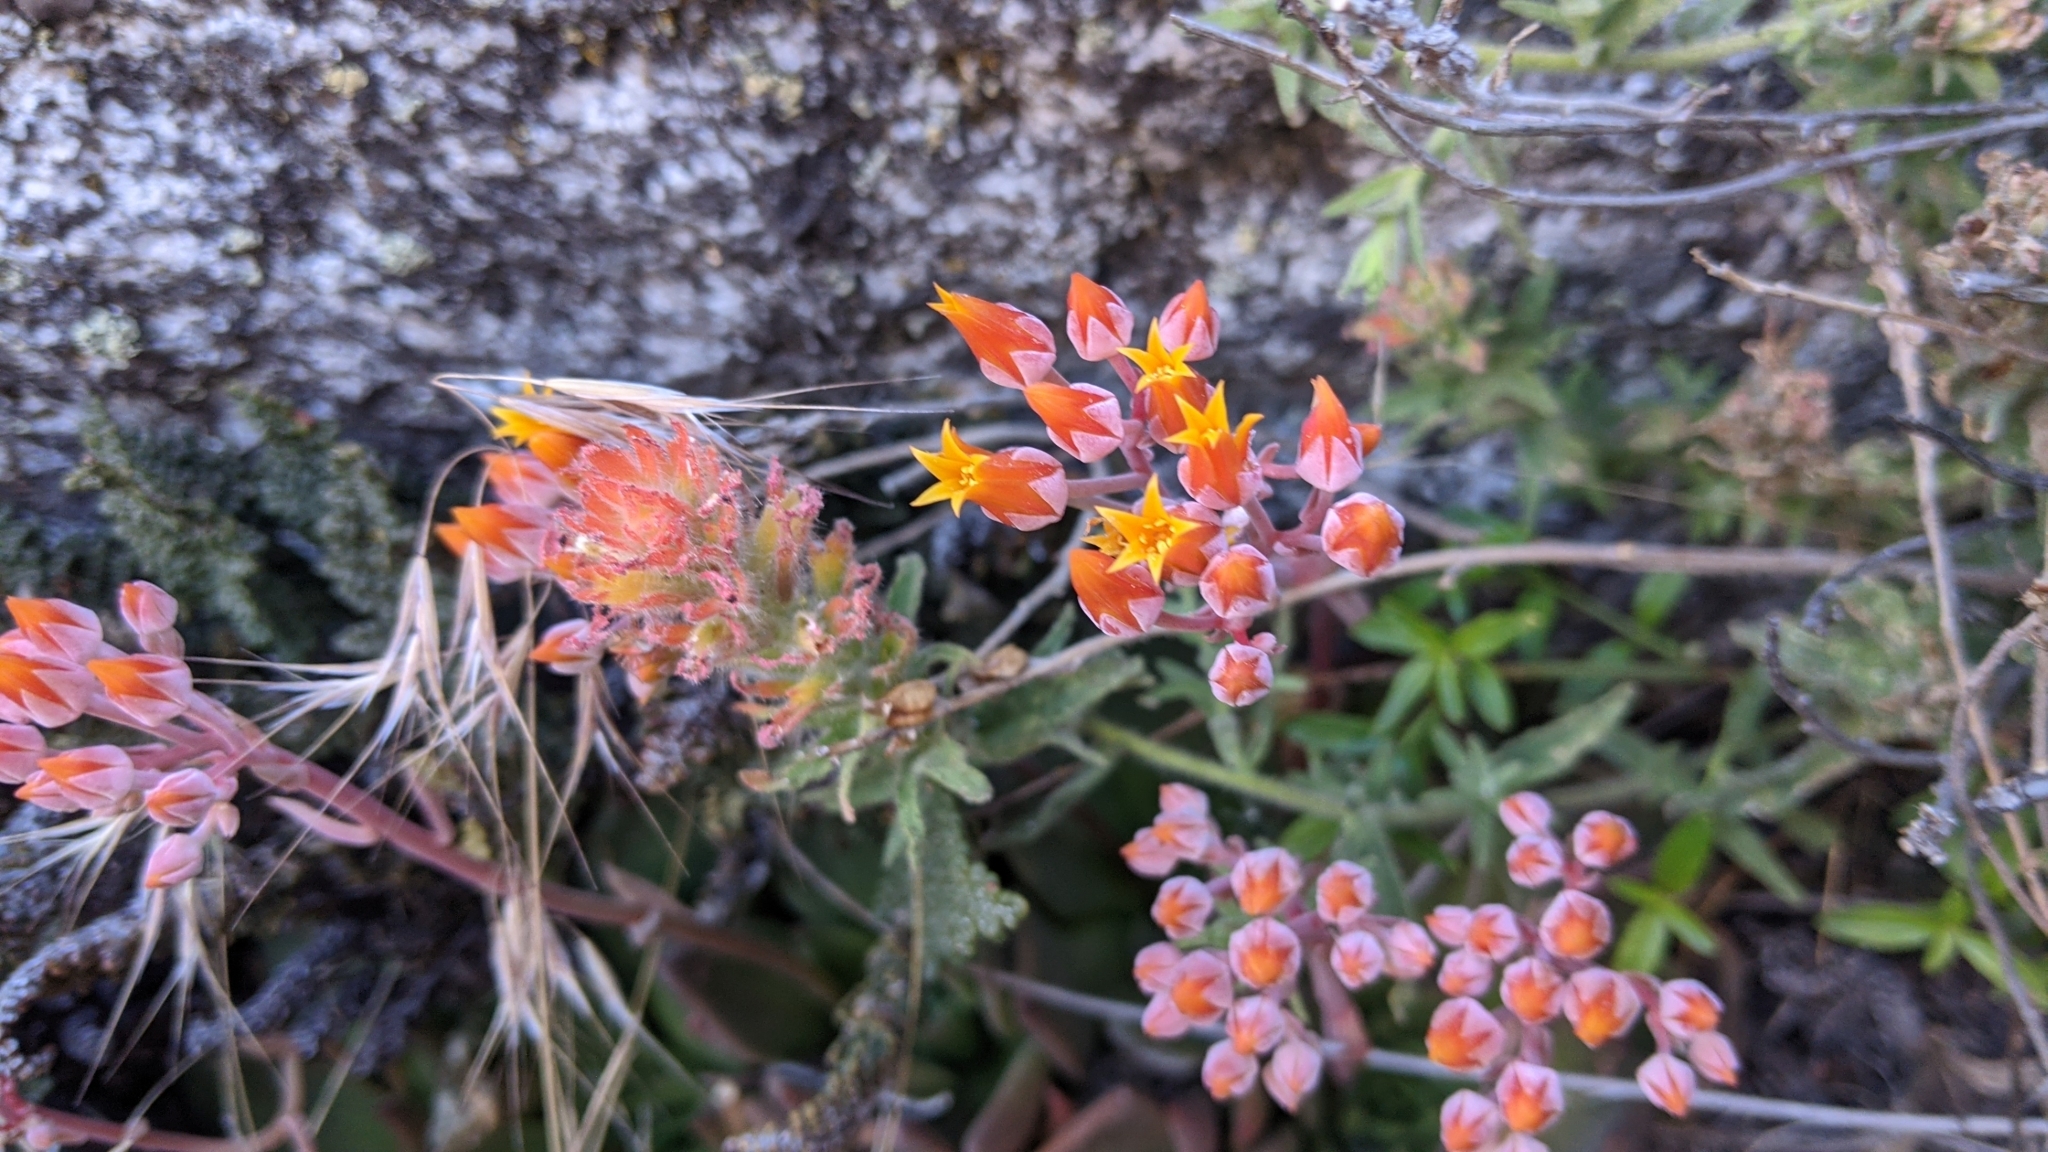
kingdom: Plantae
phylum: Tracheophyta
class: Magnoliopsida
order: Saxifragales
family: Crassulaceae
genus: Dudleya
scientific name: Dudleya cymosa
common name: Canyon dudleya
